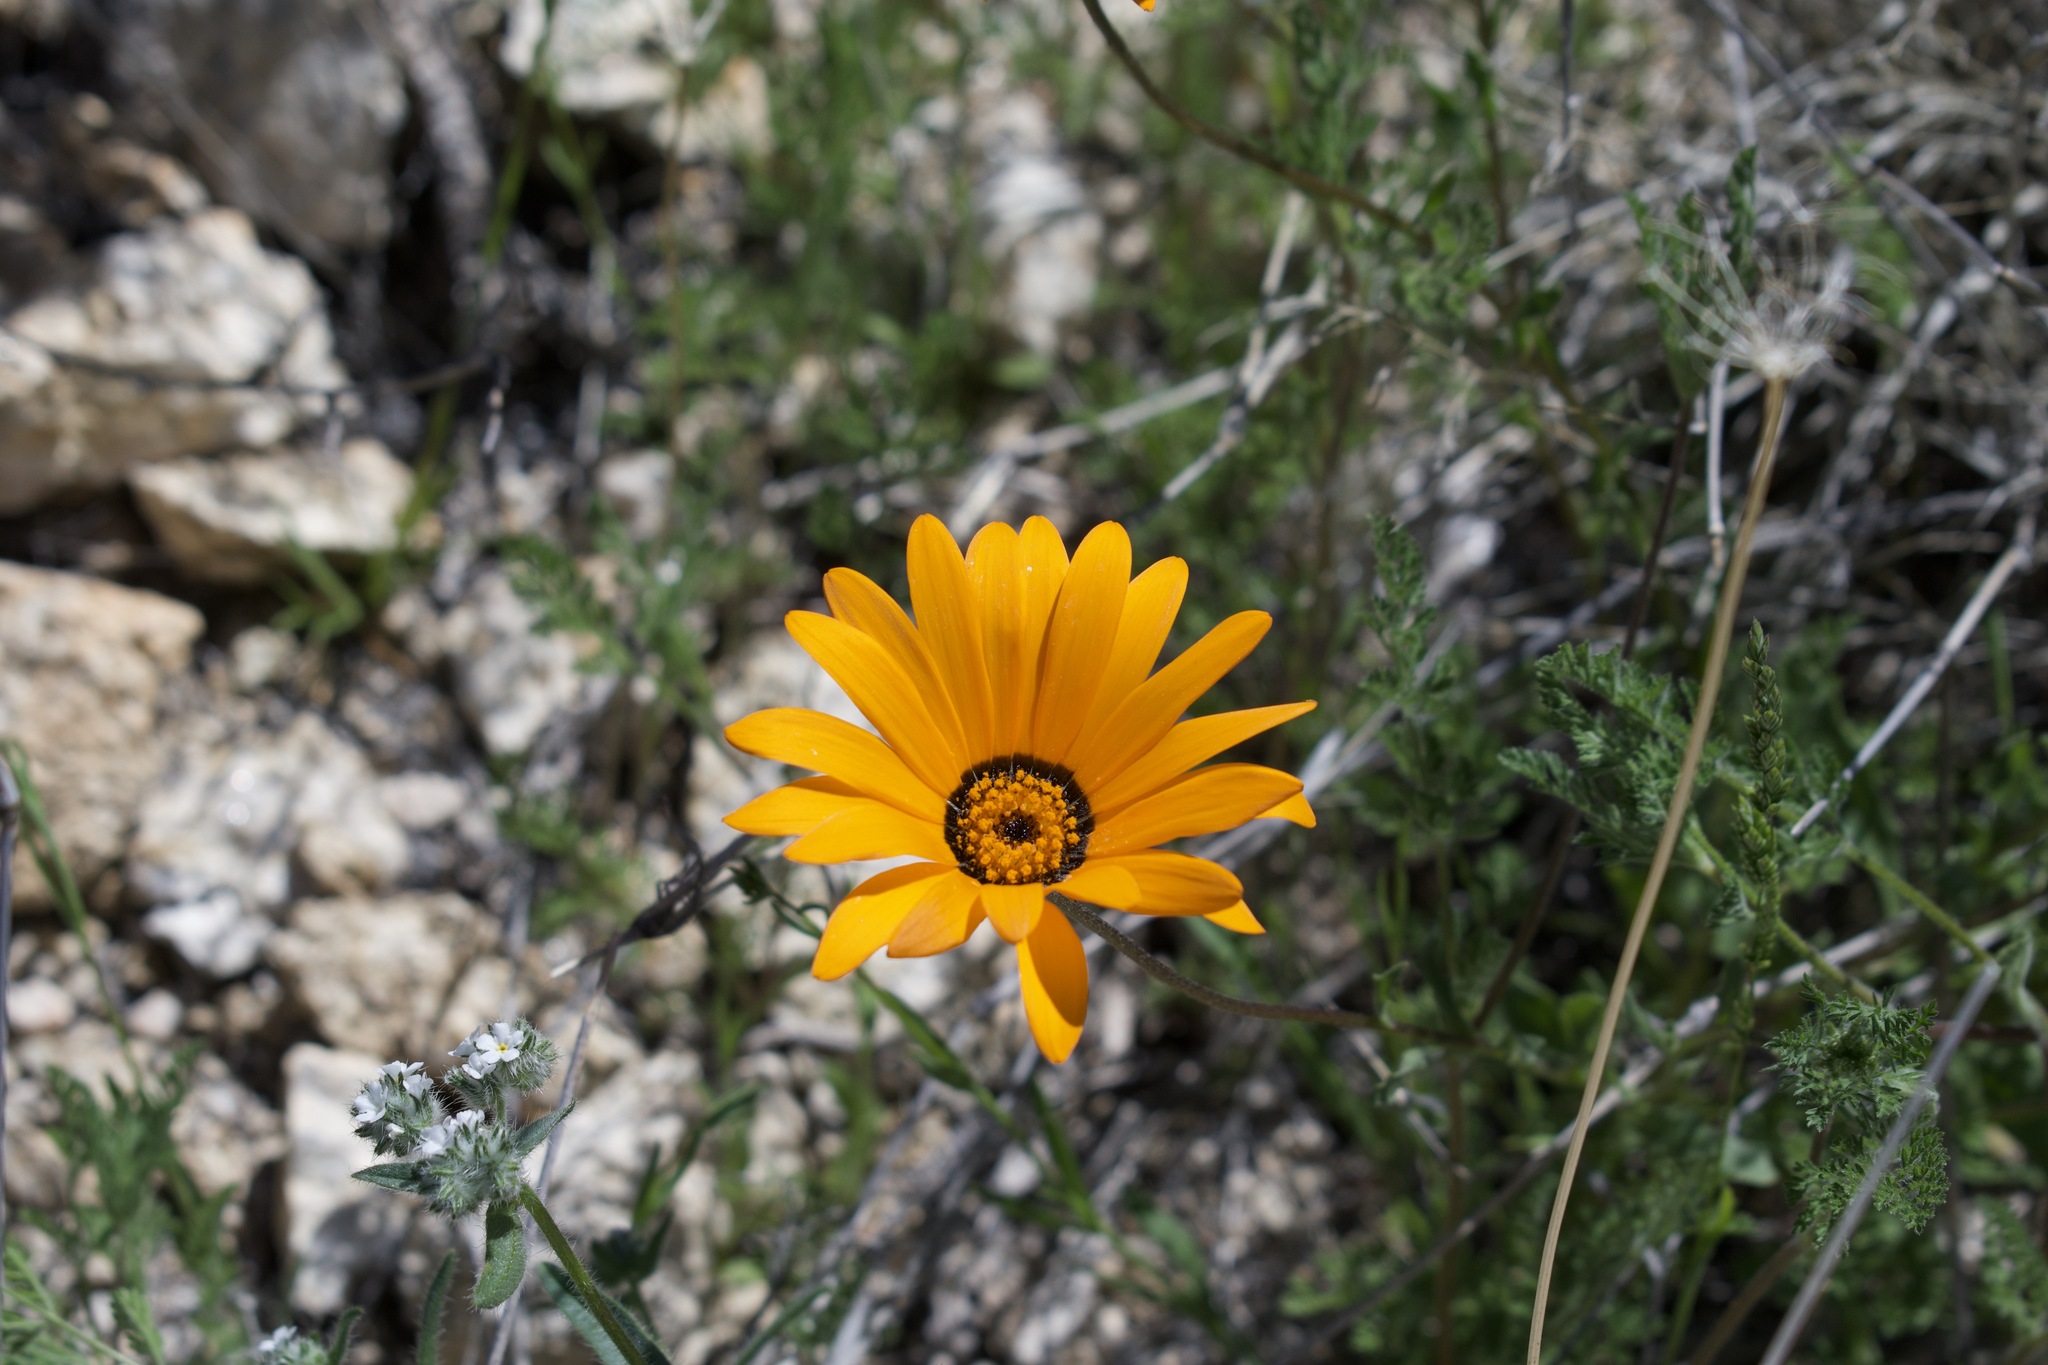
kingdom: Plantae
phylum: Tracheophyta
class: Magnoliopsida
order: Asterales
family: Asteraceae
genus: Dimorphotheca
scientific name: Dimorphotheca sinuata
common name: Glandular cape marigold
